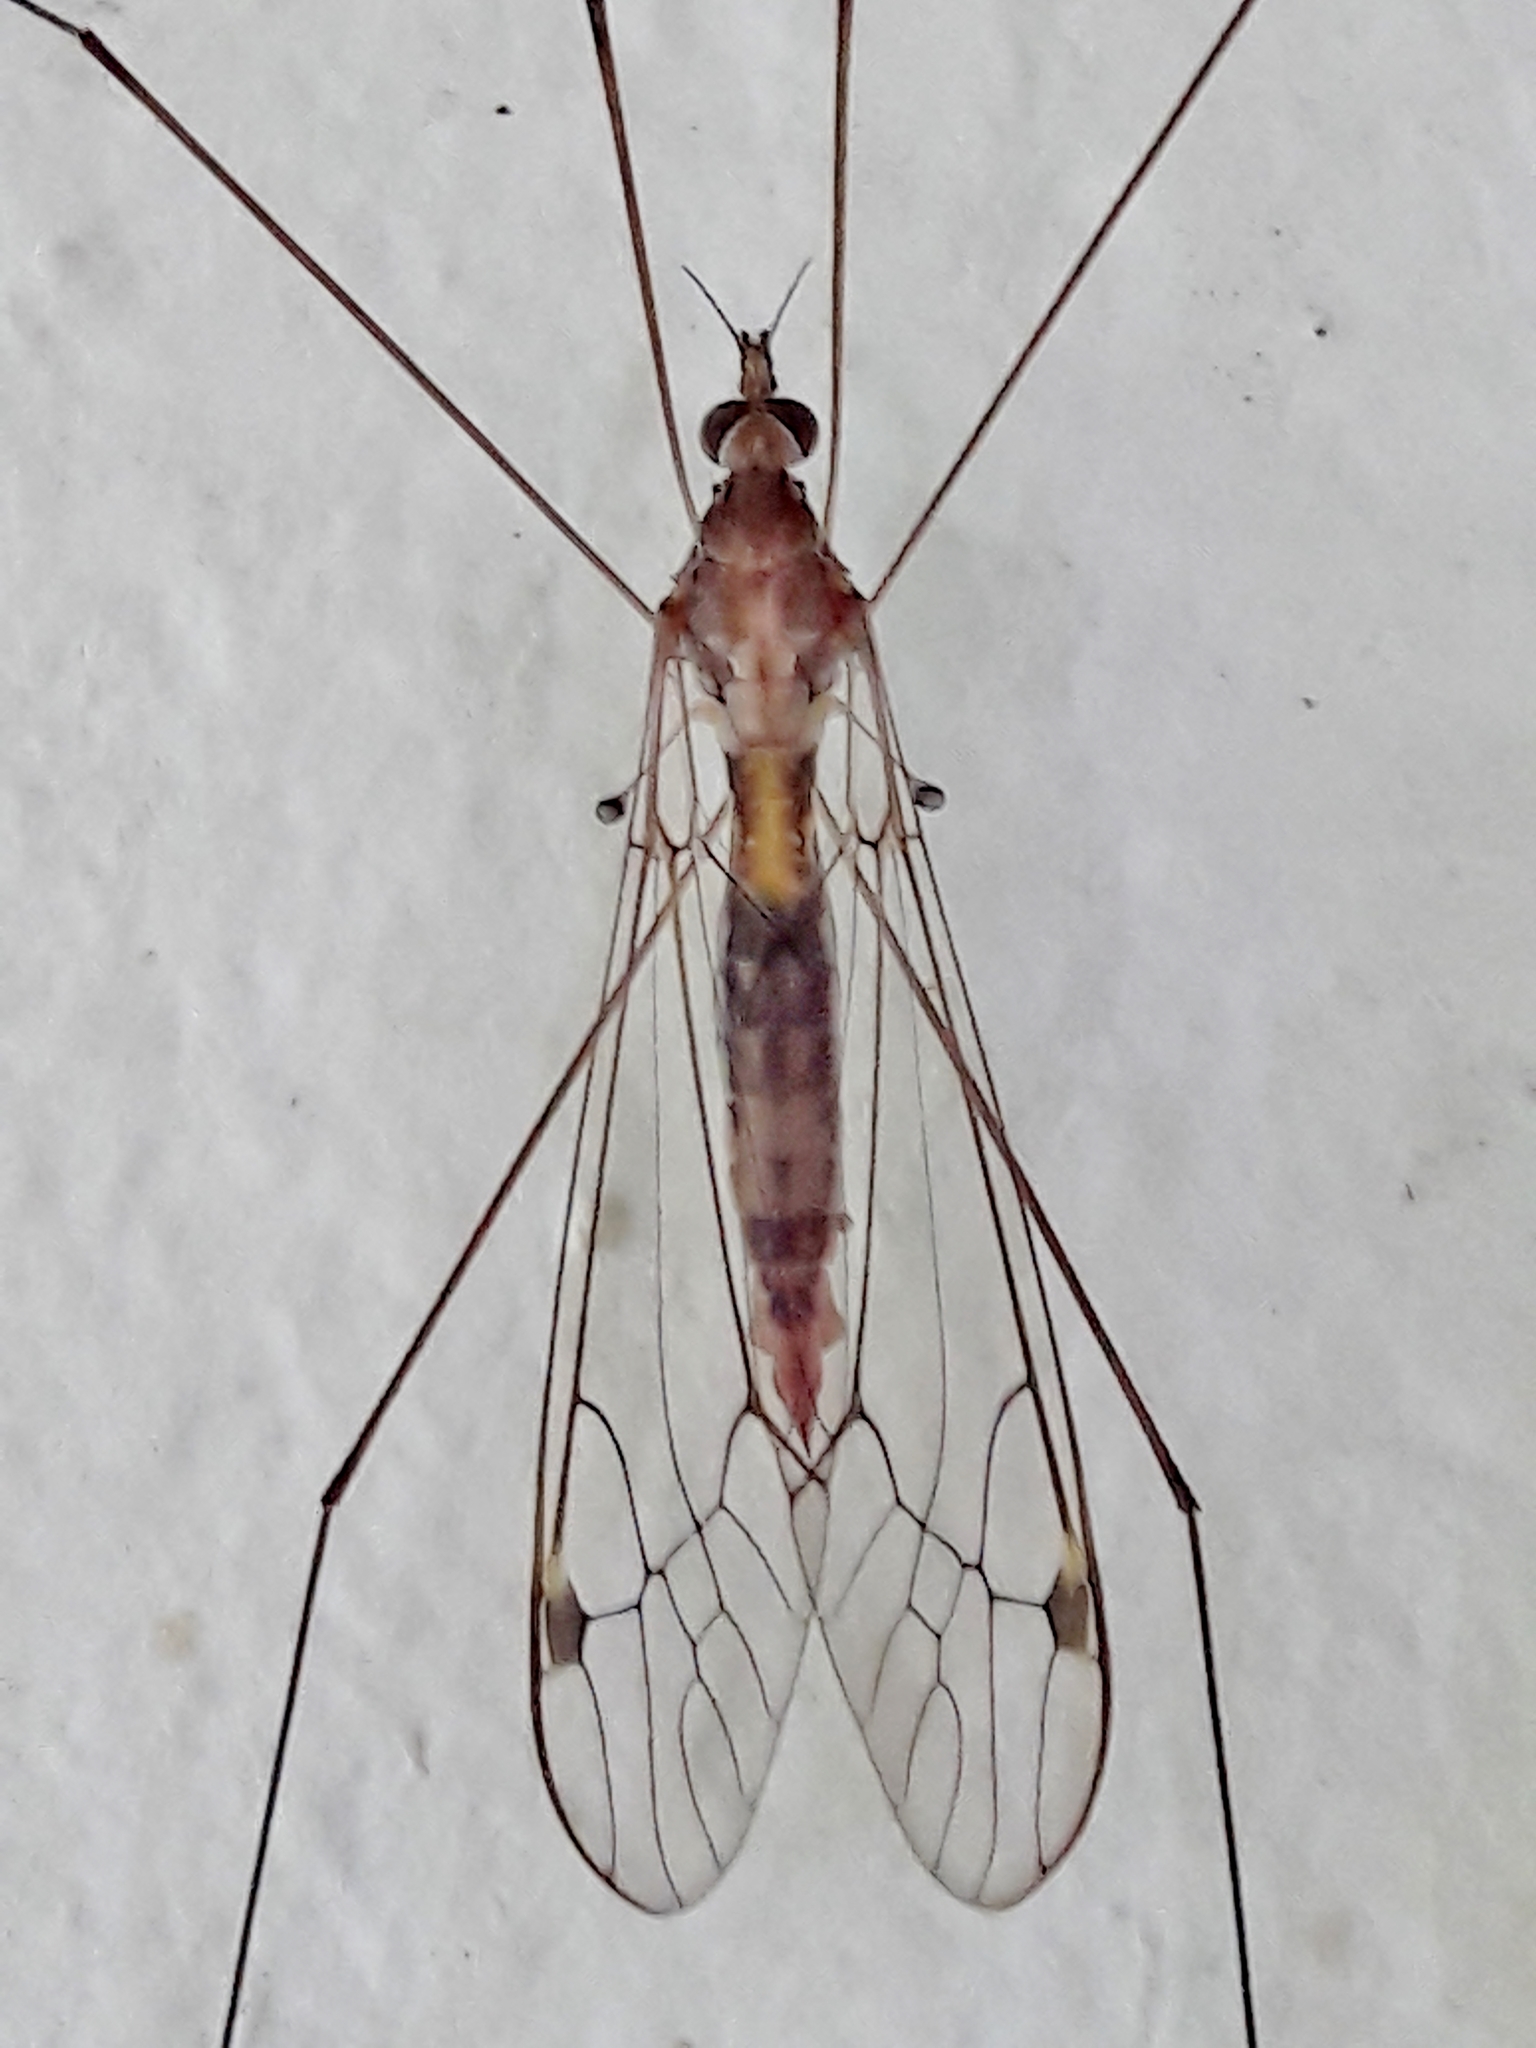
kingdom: Animalia
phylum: Arthropoda
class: Insecta
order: Diptera
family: Tipulidae
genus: Maekistocera
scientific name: Maekistocera longipennis
